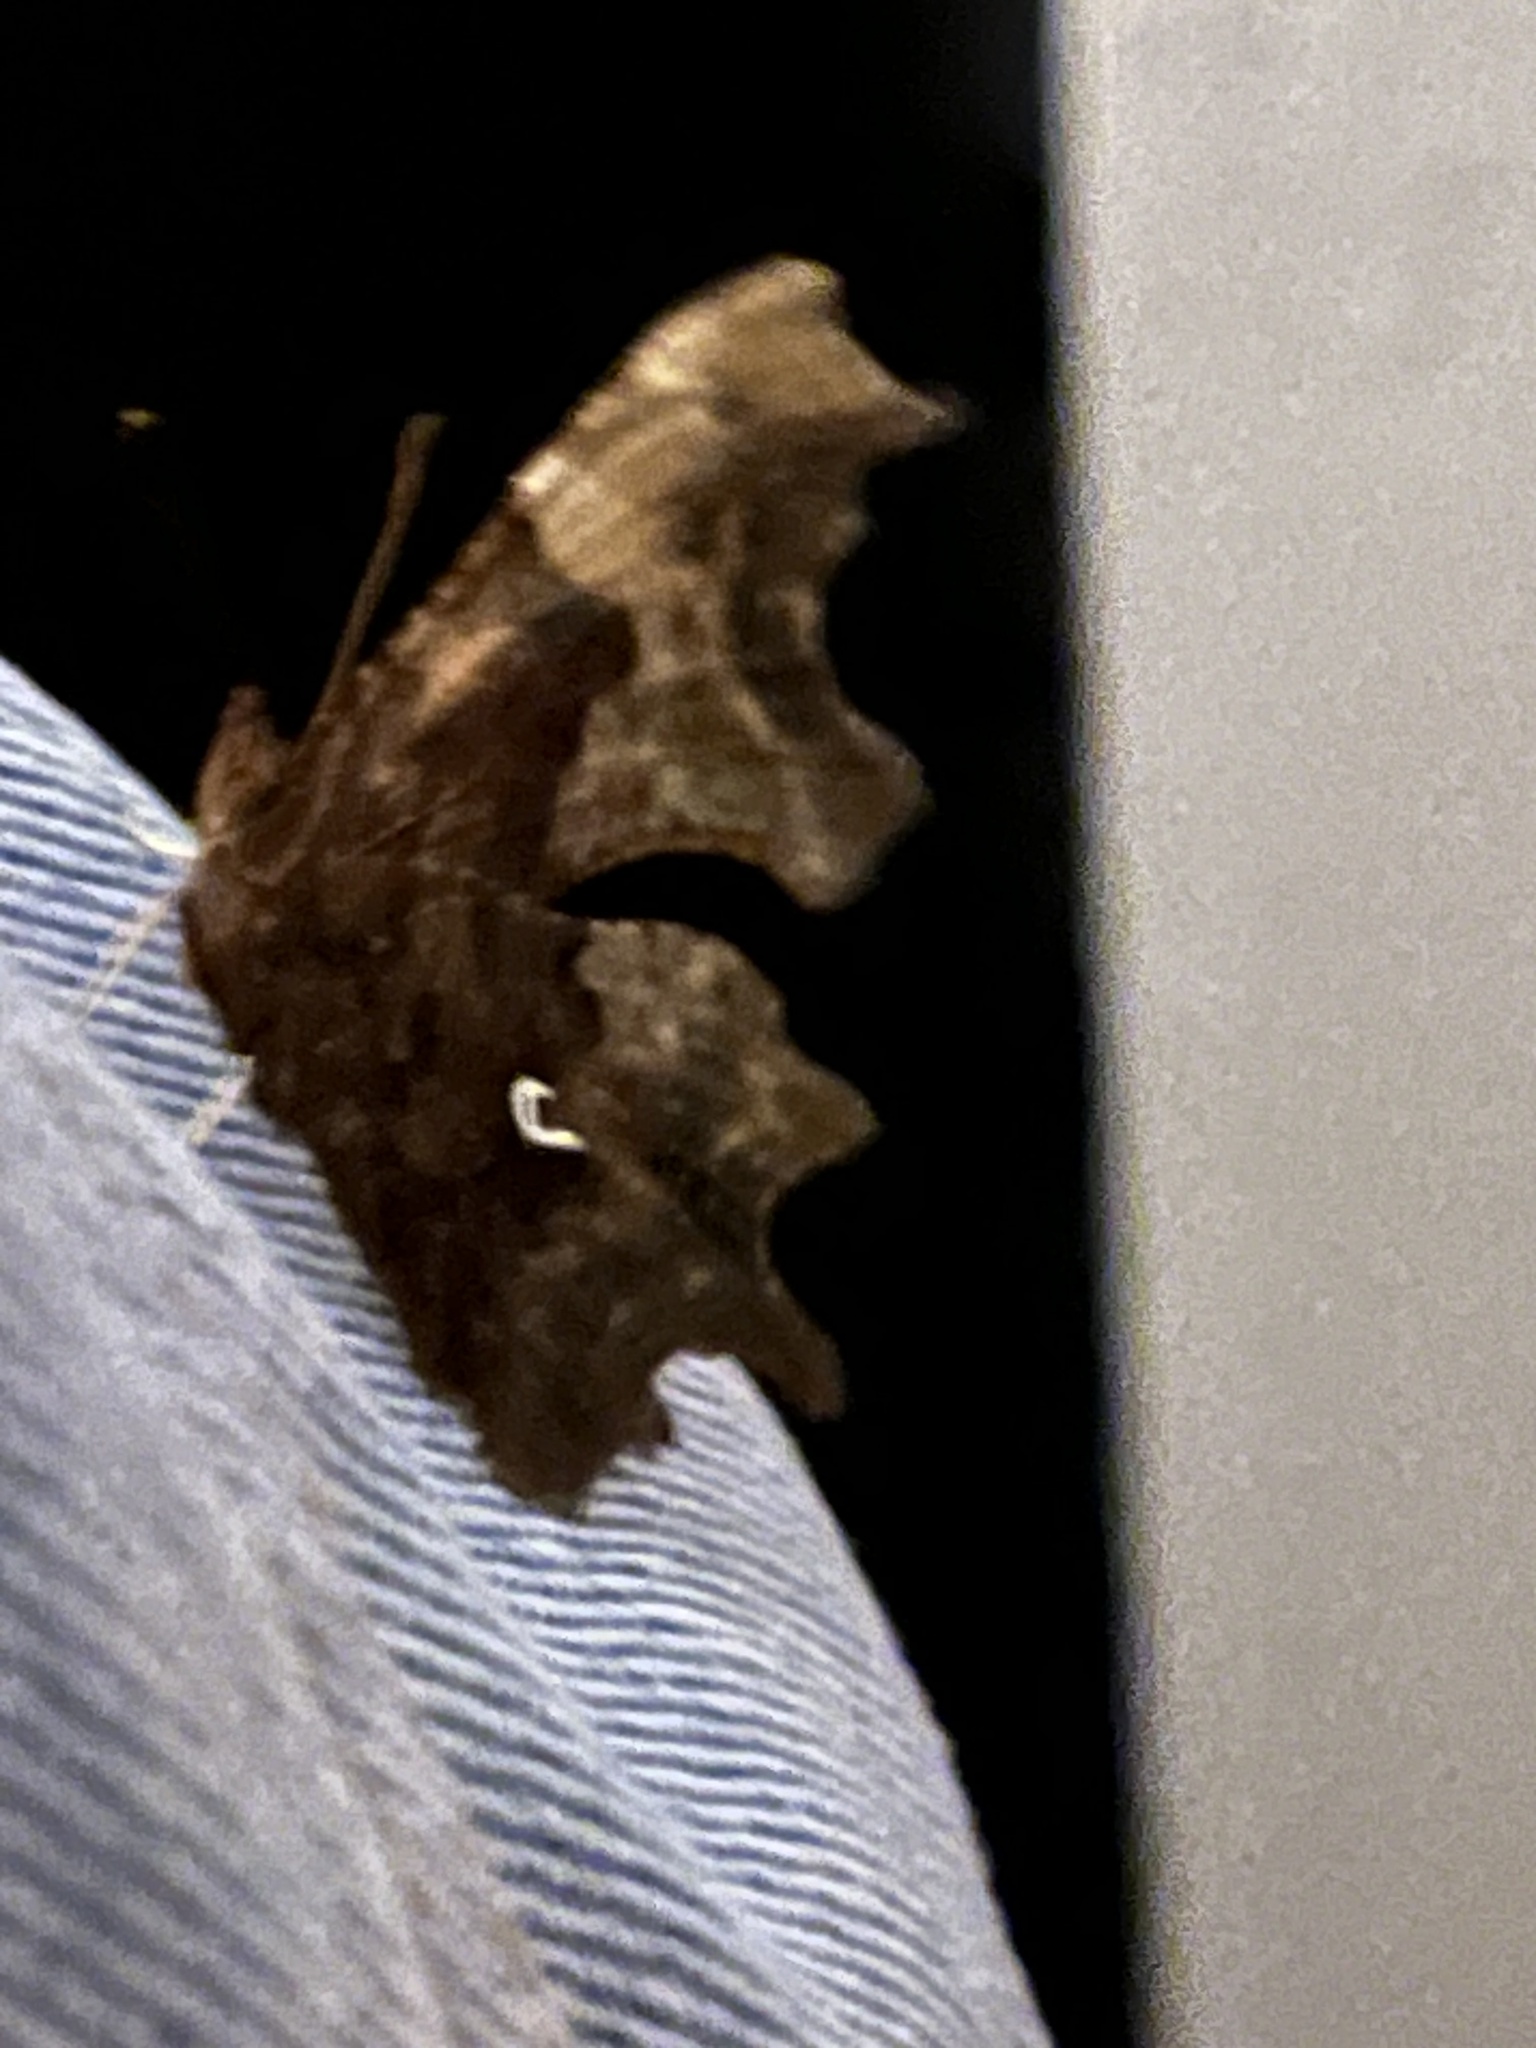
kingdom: Animalia
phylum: Arthropoda
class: Insecta
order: Lepidoptera
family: Nymphalidae
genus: Polygonia
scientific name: Polygonia c-album
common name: Comma
